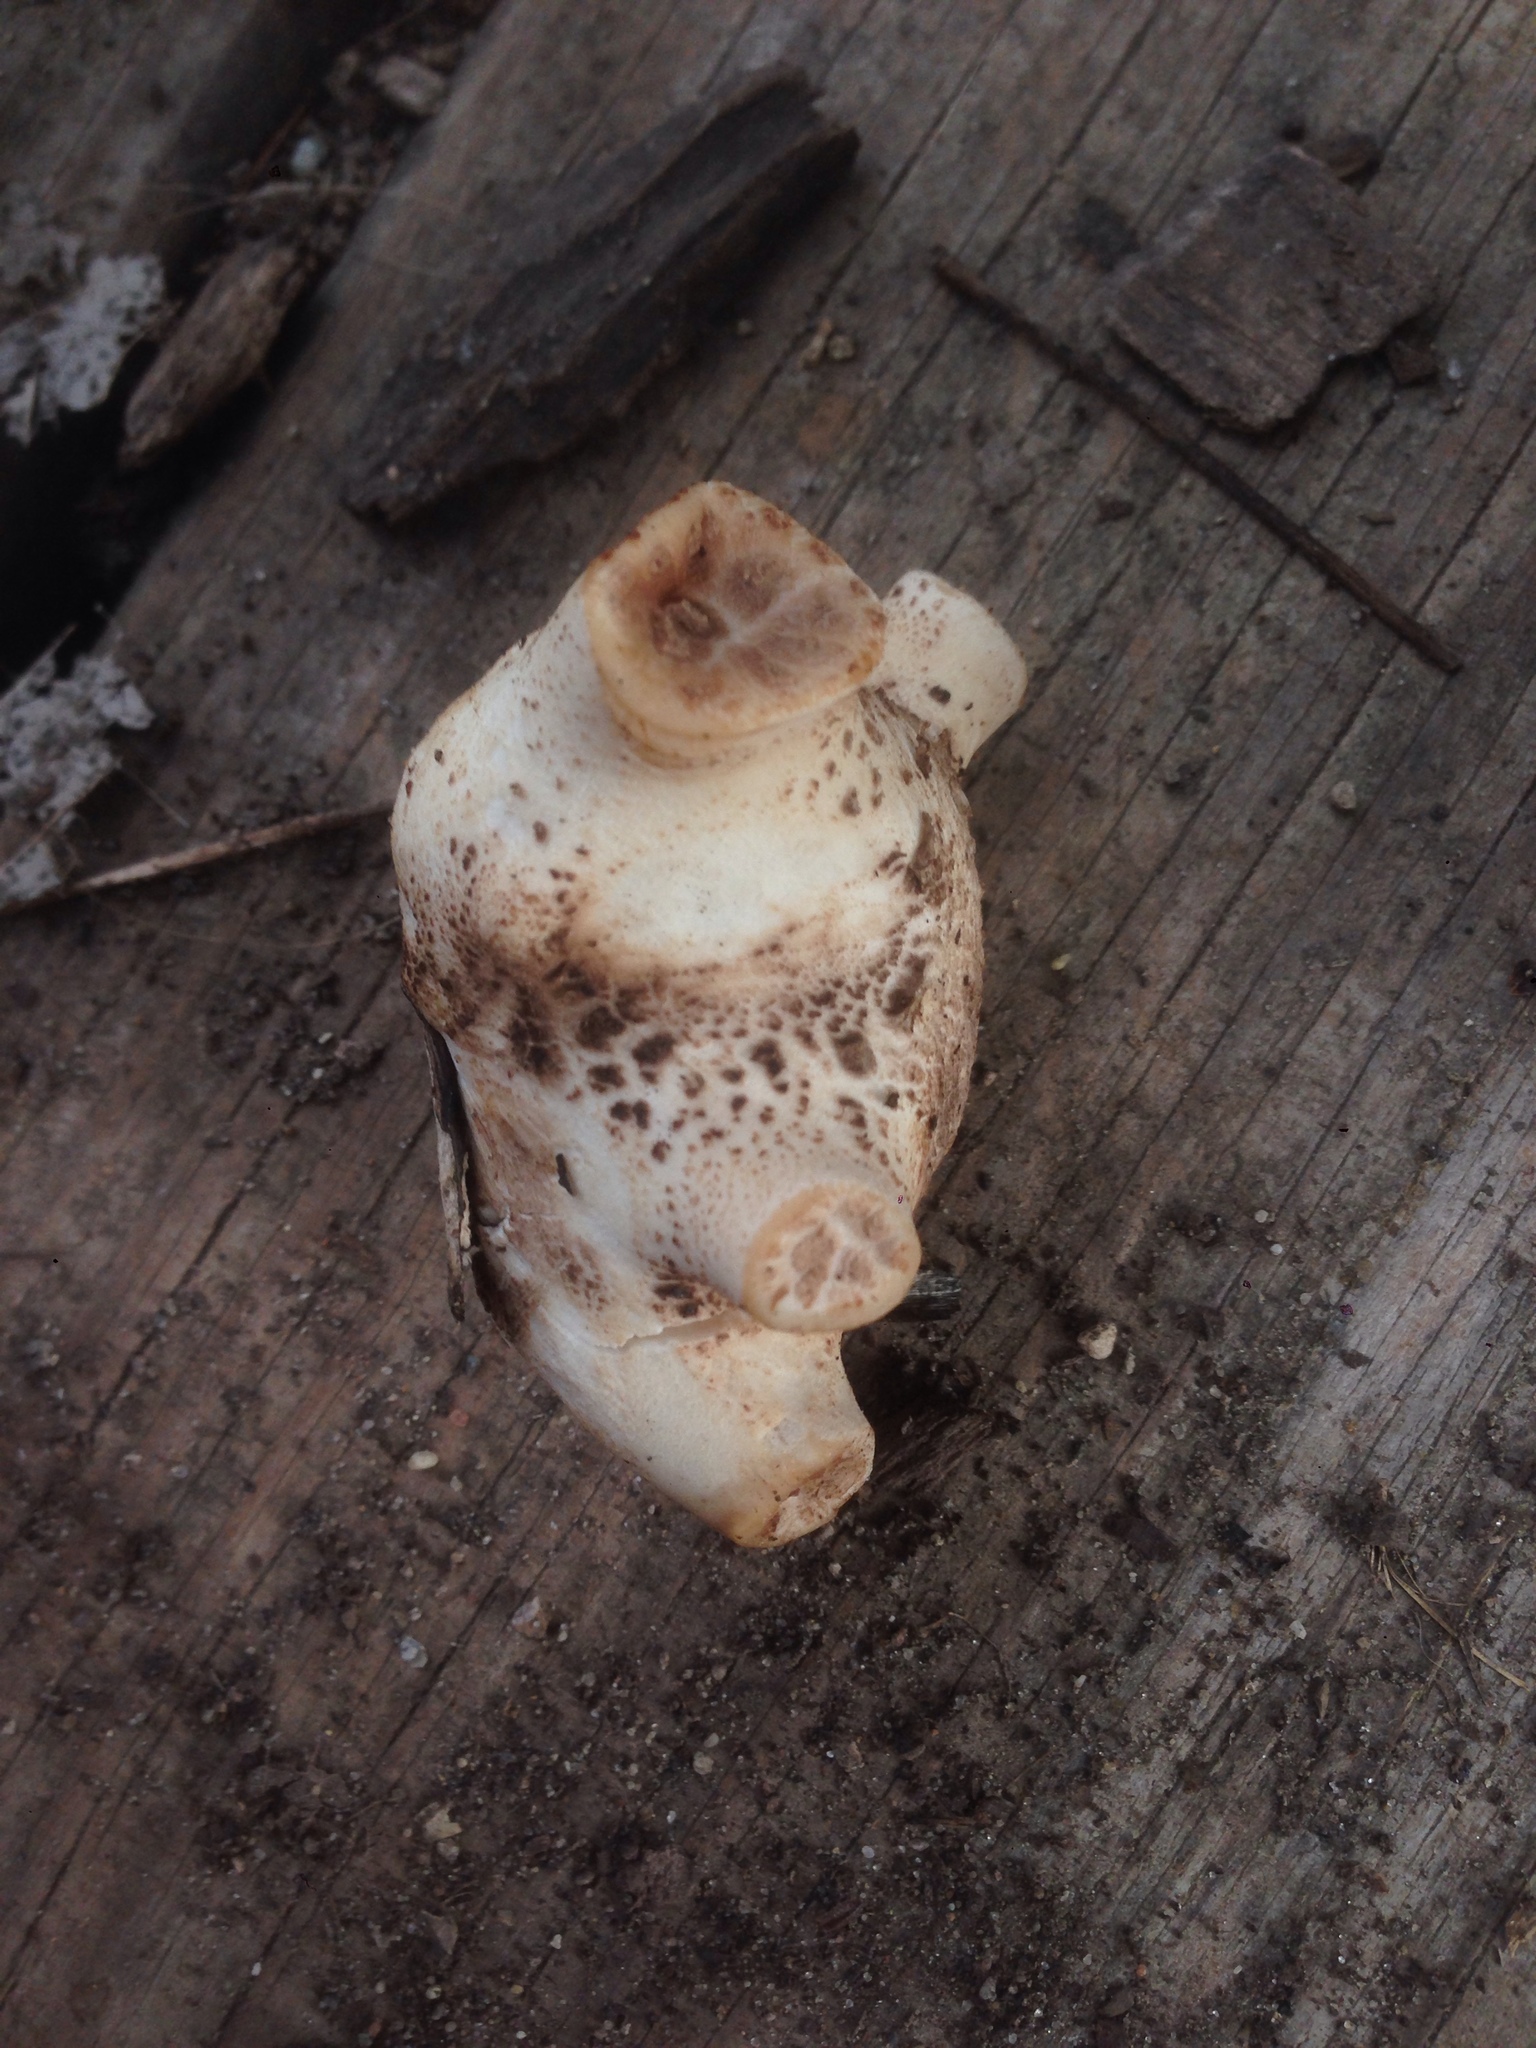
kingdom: Fungi
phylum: Basidiomycota
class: Agaricomycetes
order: Polyporales
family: Polyporaceae
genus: Cerioporus
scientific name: Cerioporus squamosus
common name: Dryad's saddle
